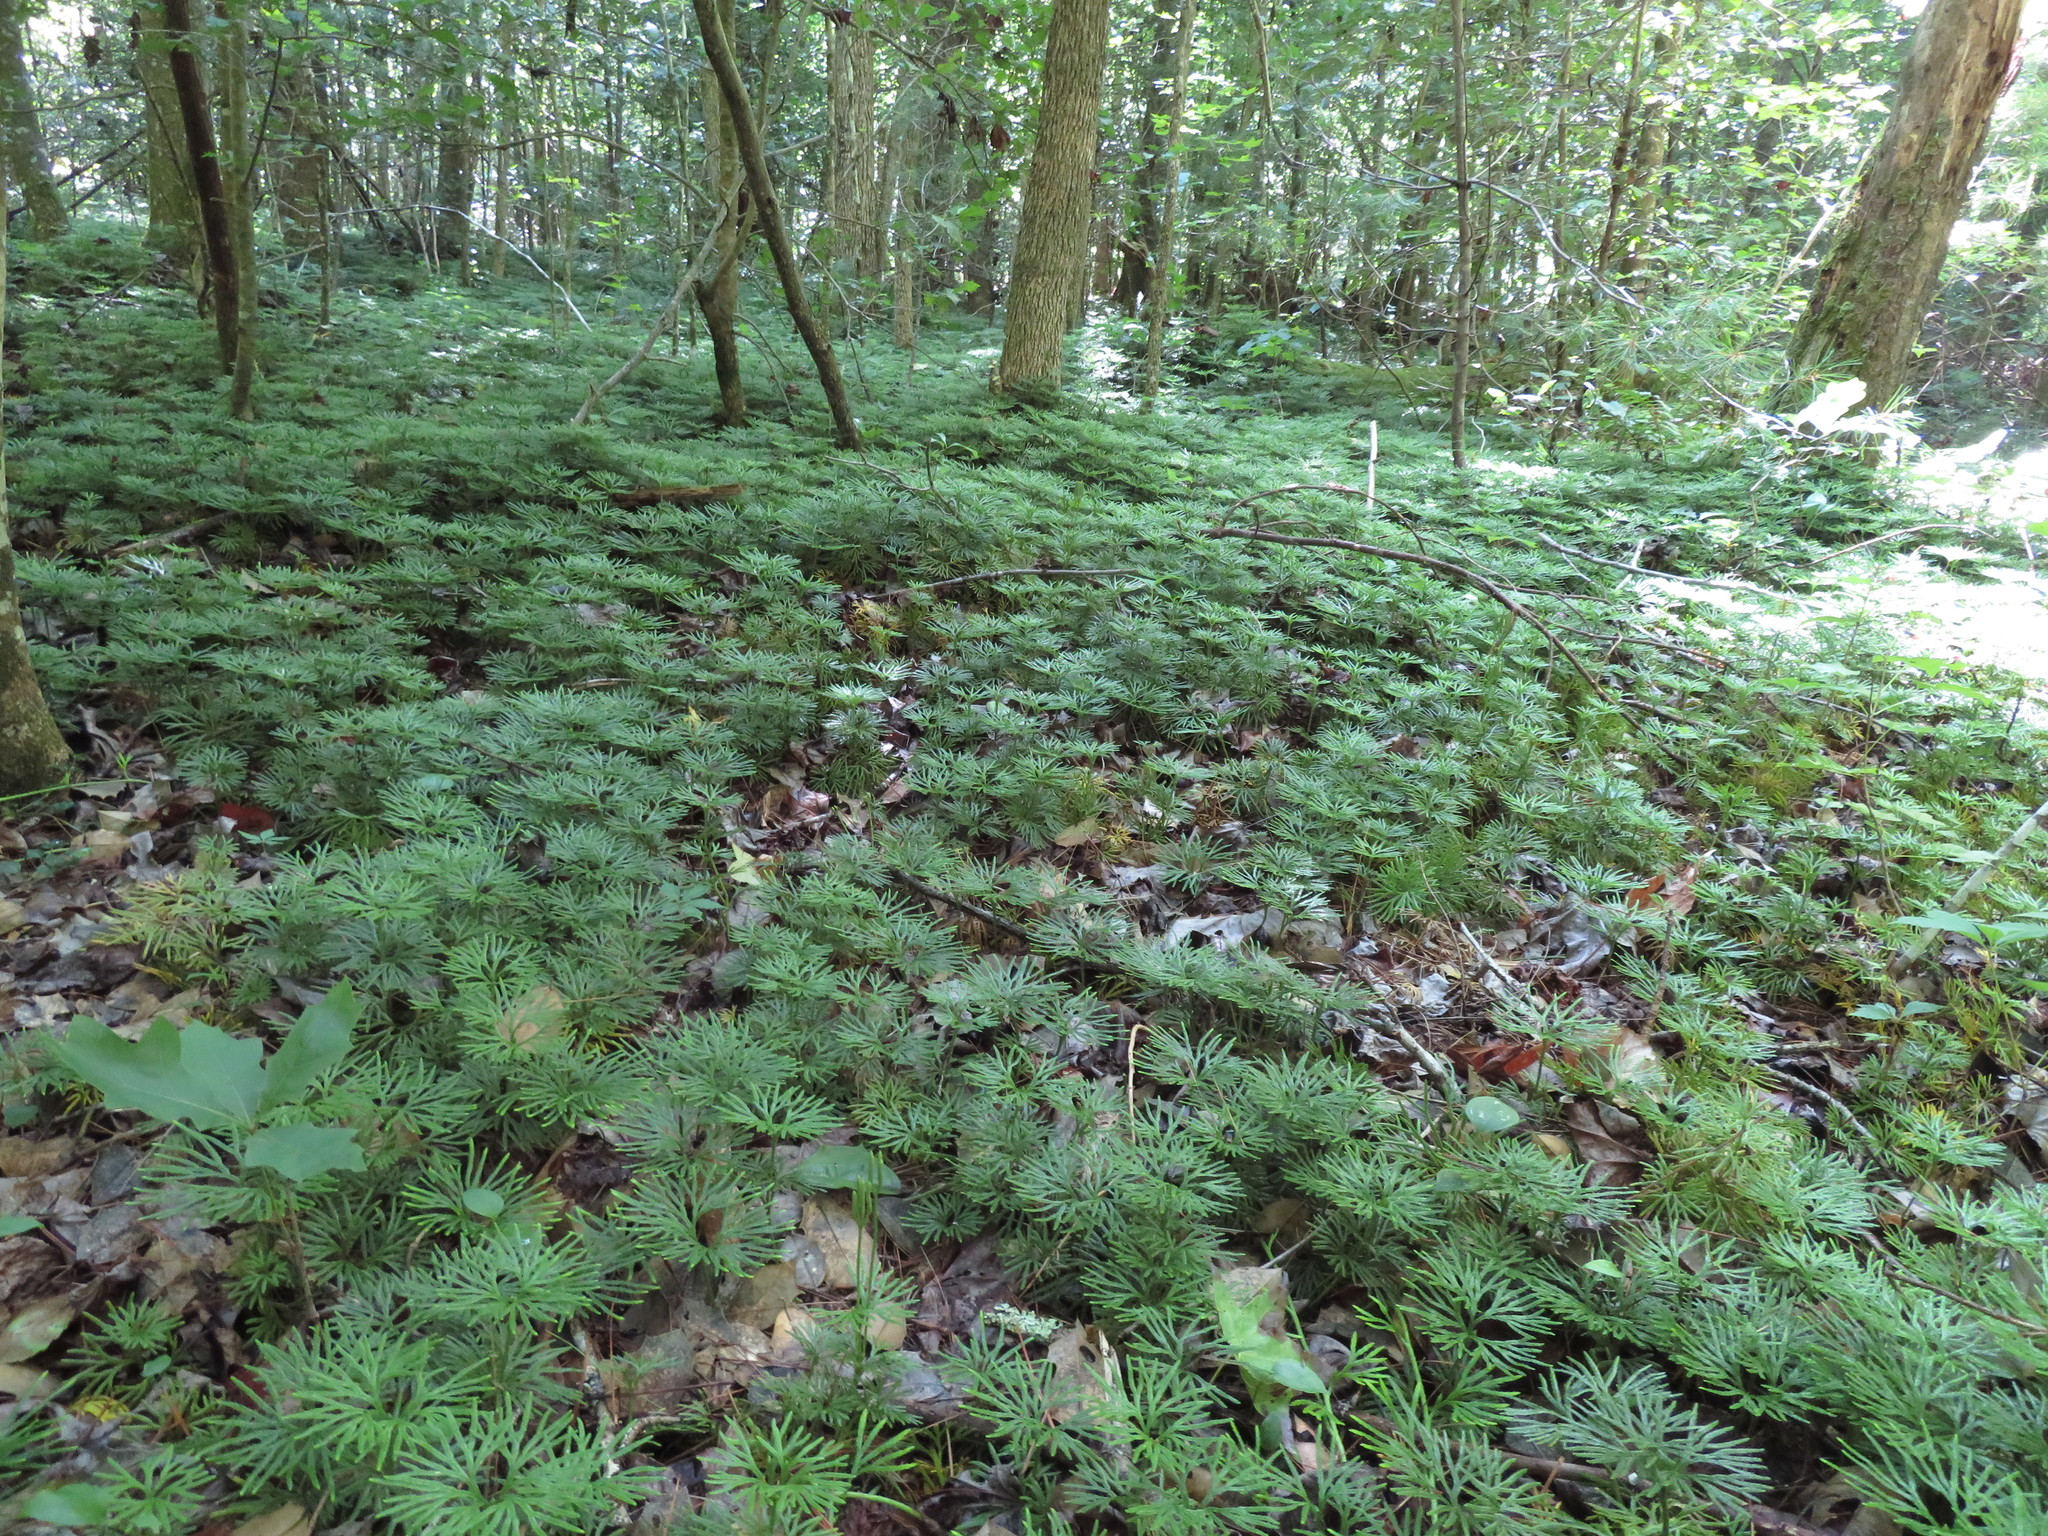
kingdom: Plantae
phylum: Tracheophyta
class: Lycopodiopsida
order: Lycopodiales
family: Lycopodiaceae
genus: Diphasiastrum
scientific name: Diphasiastrum digitatum
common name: Southern running-pine
